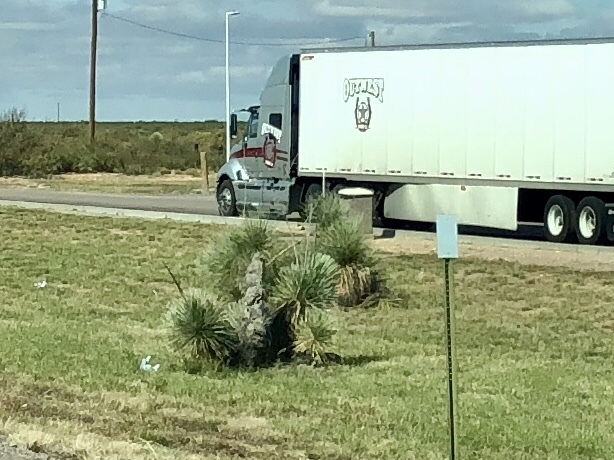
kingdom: Plantae
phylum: Tracheophyta
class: Liliopsida
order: Asparagales
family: Asparagaceae
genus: Yucca
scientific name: Yucca elata
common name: Palmella
